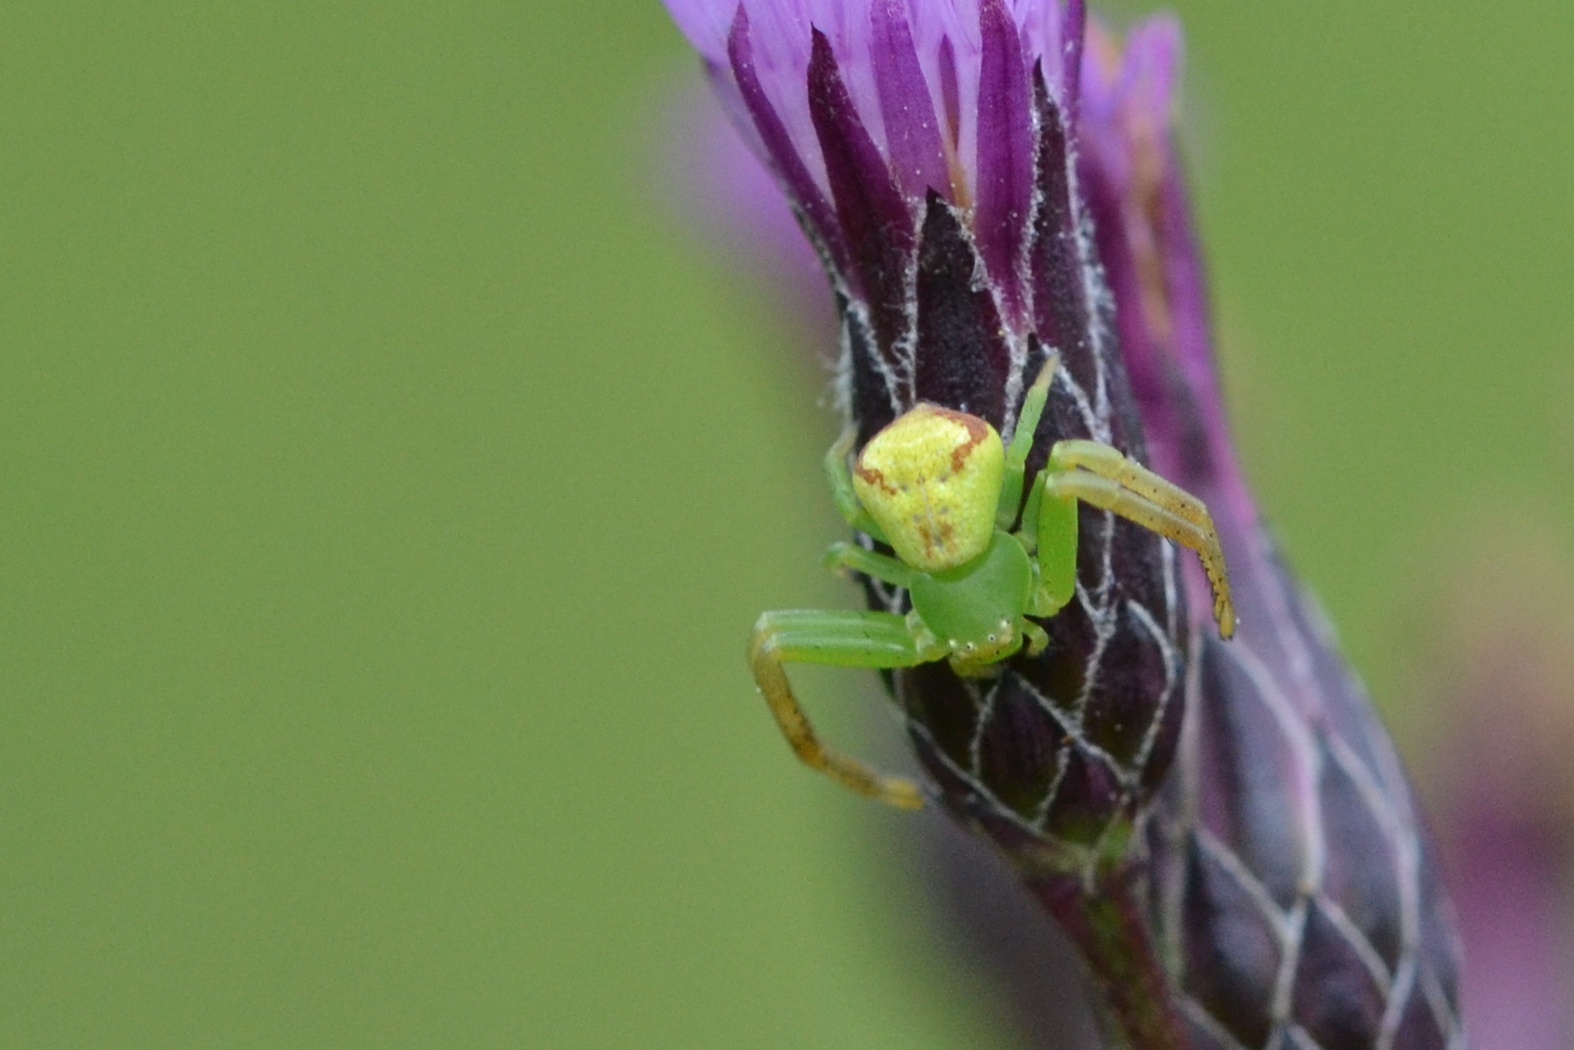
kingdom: Animalia
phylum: Arthropoda
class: Arachnida
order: Araneae
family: Thomisidae
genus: Ebrechtella
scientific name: Ebrechtella tricuspidata
